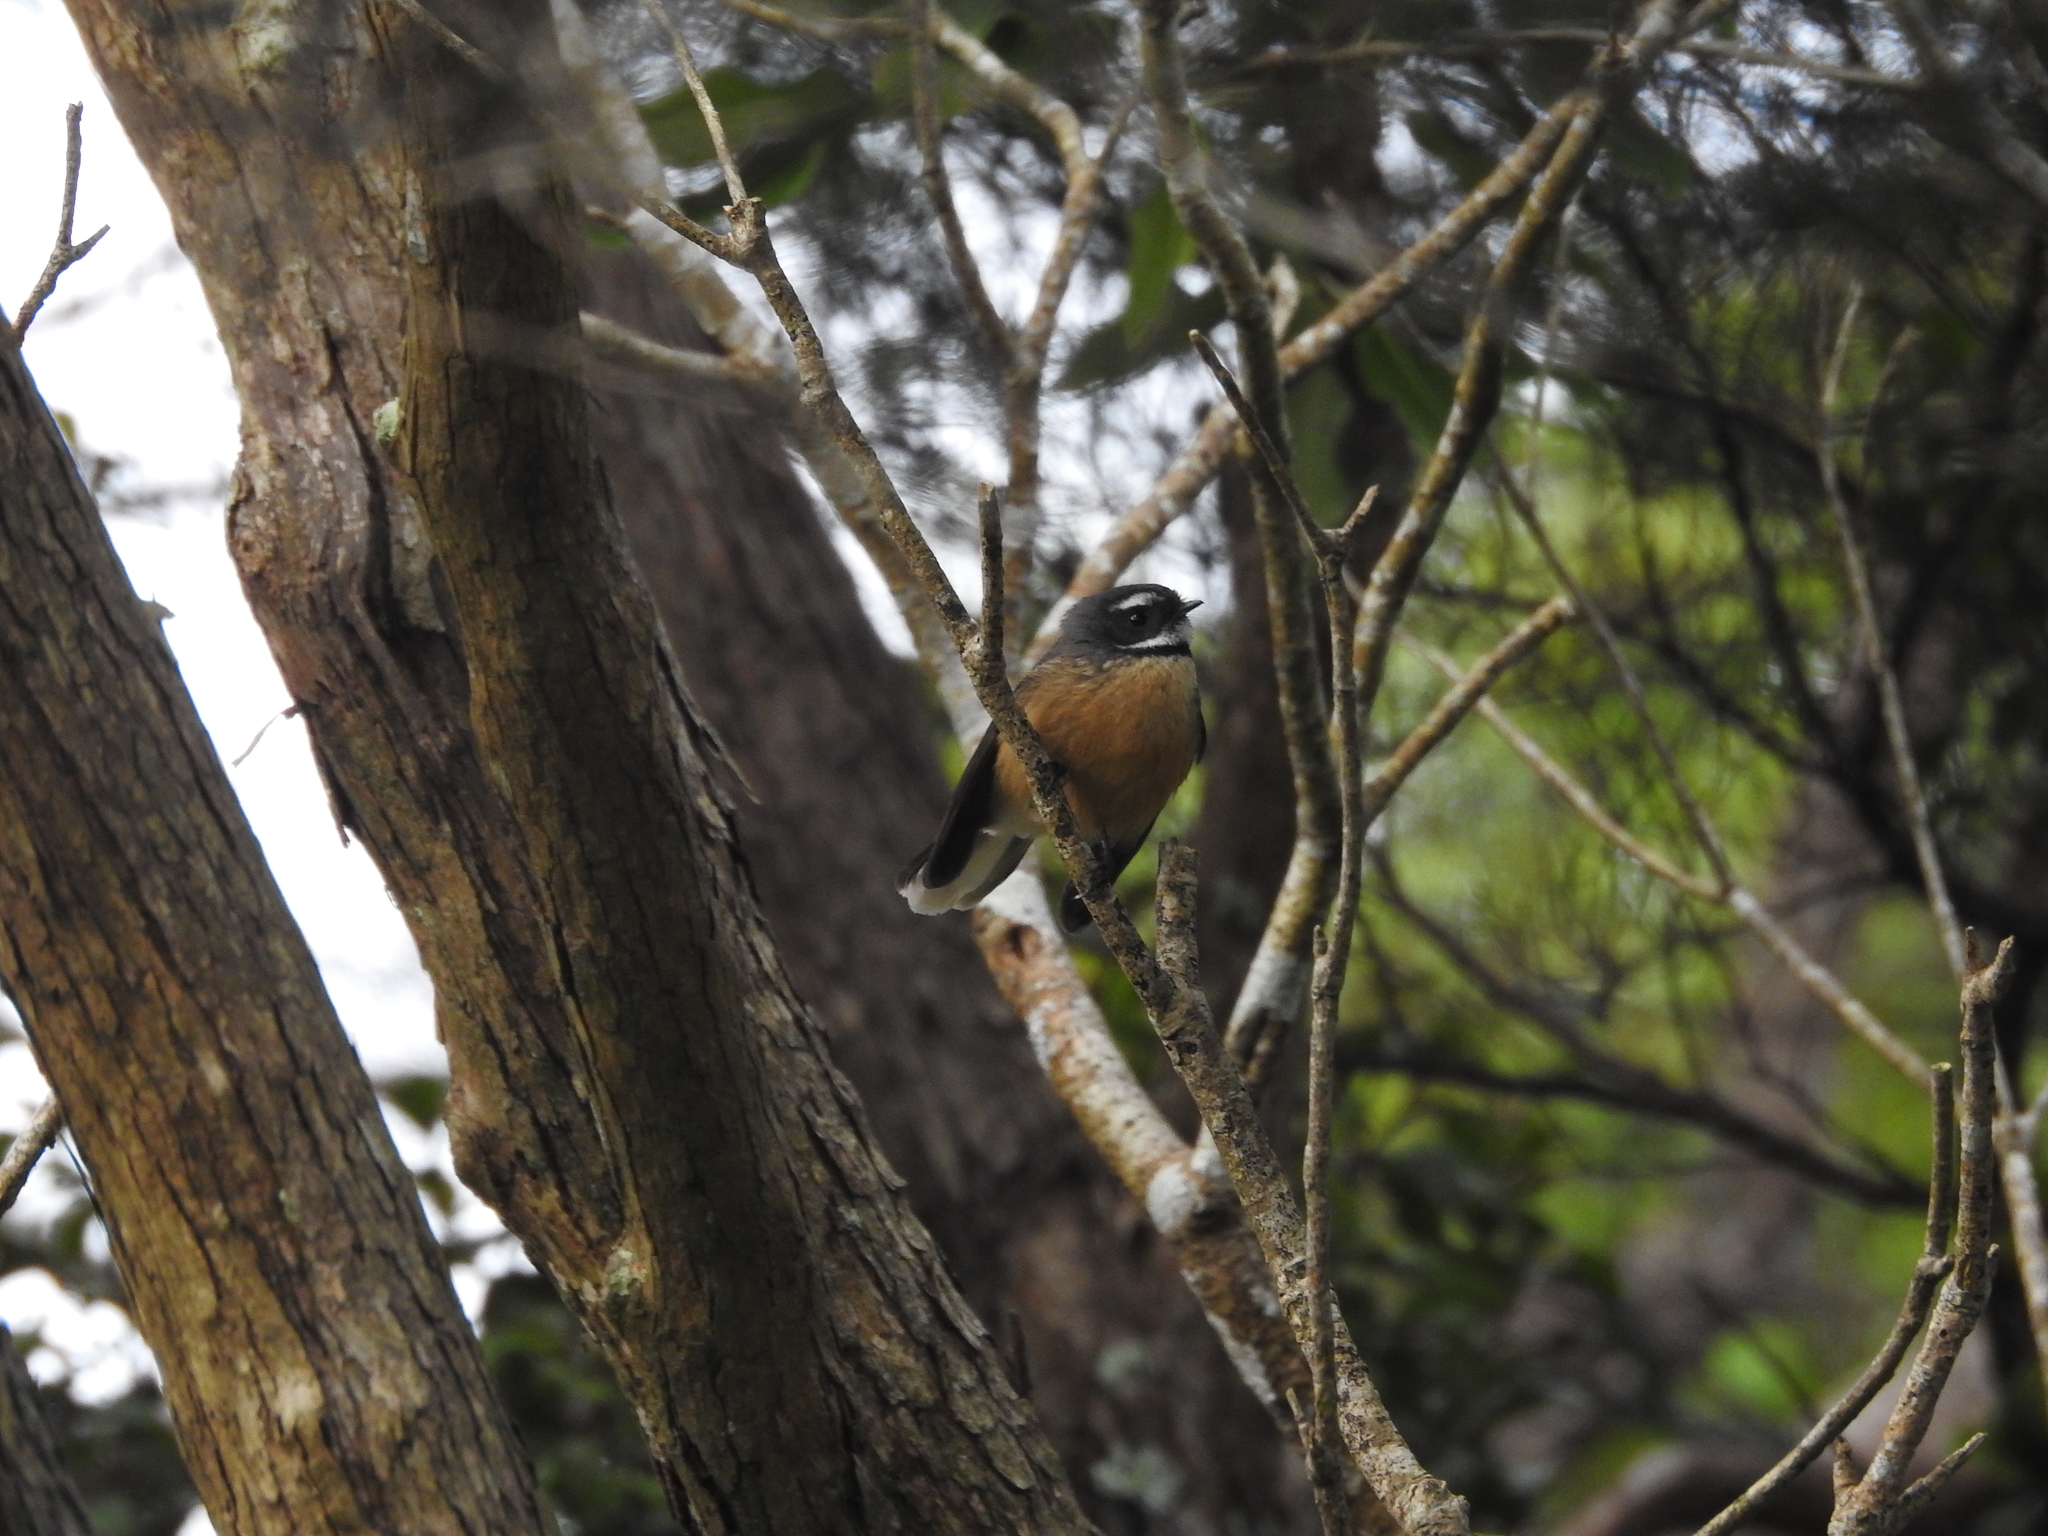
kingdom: Animalia
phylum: Chordata
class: Aves
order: Passeriformes
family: Rhipiduridae
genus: Rhipidura
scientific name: Rhipidura fuliginosa
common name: New zealand fantail
